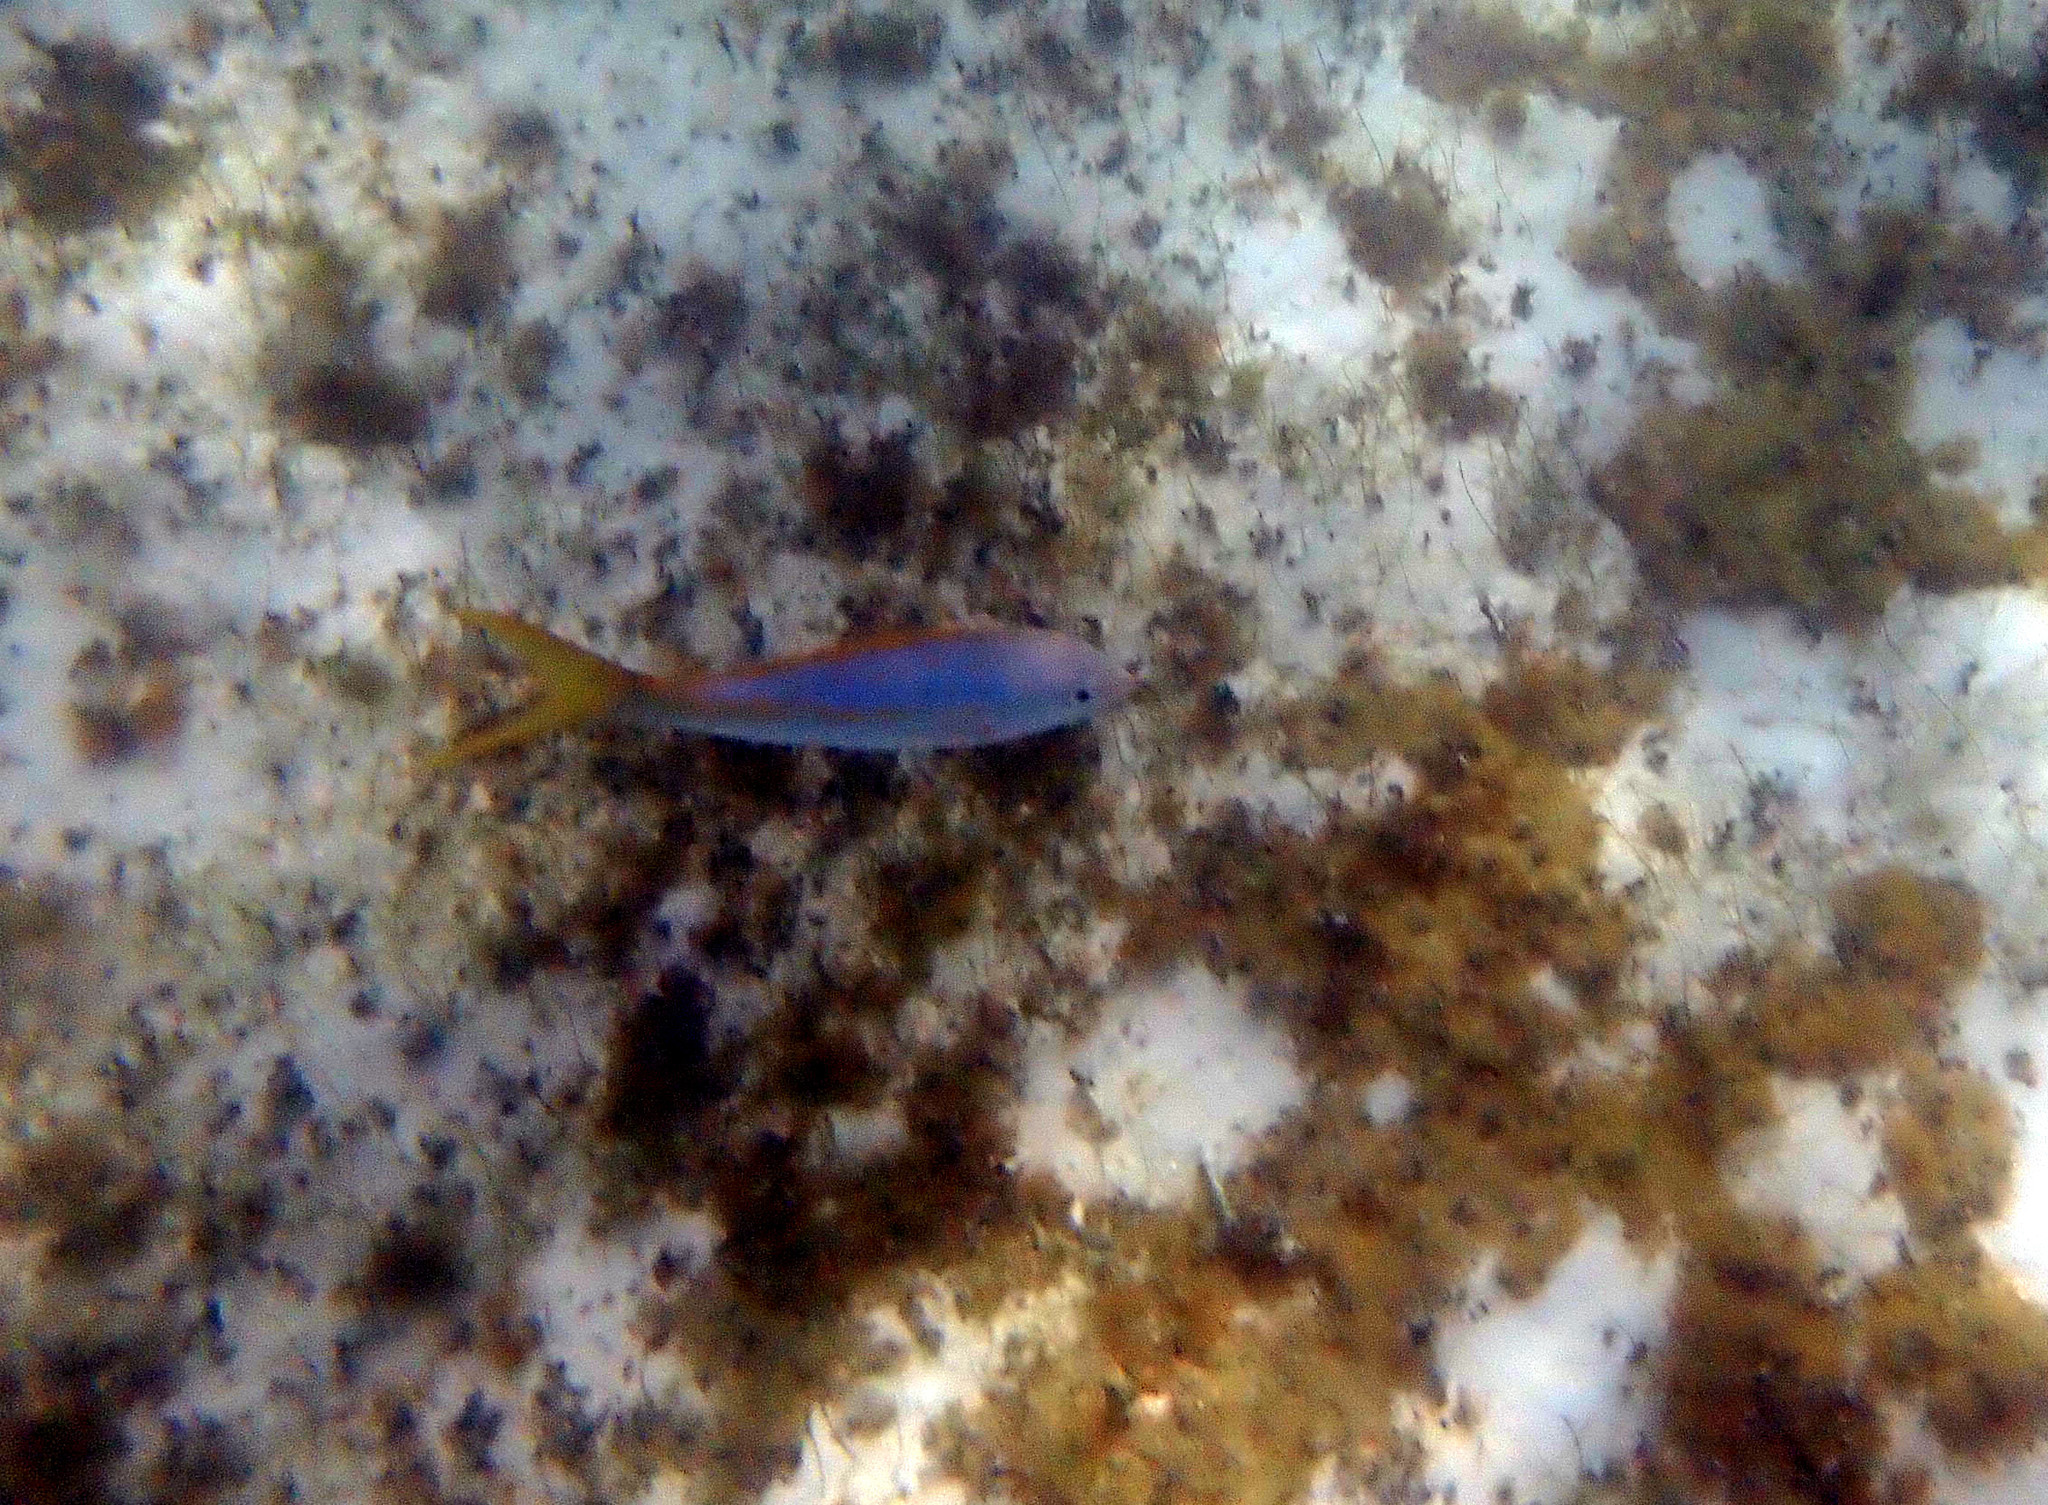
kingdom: Animalia
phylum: Chordata
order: Perciformes
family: Lutjanidae
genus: Ocyurus
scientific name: Ocyurus chrysurus
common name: Yellowtail snapper
